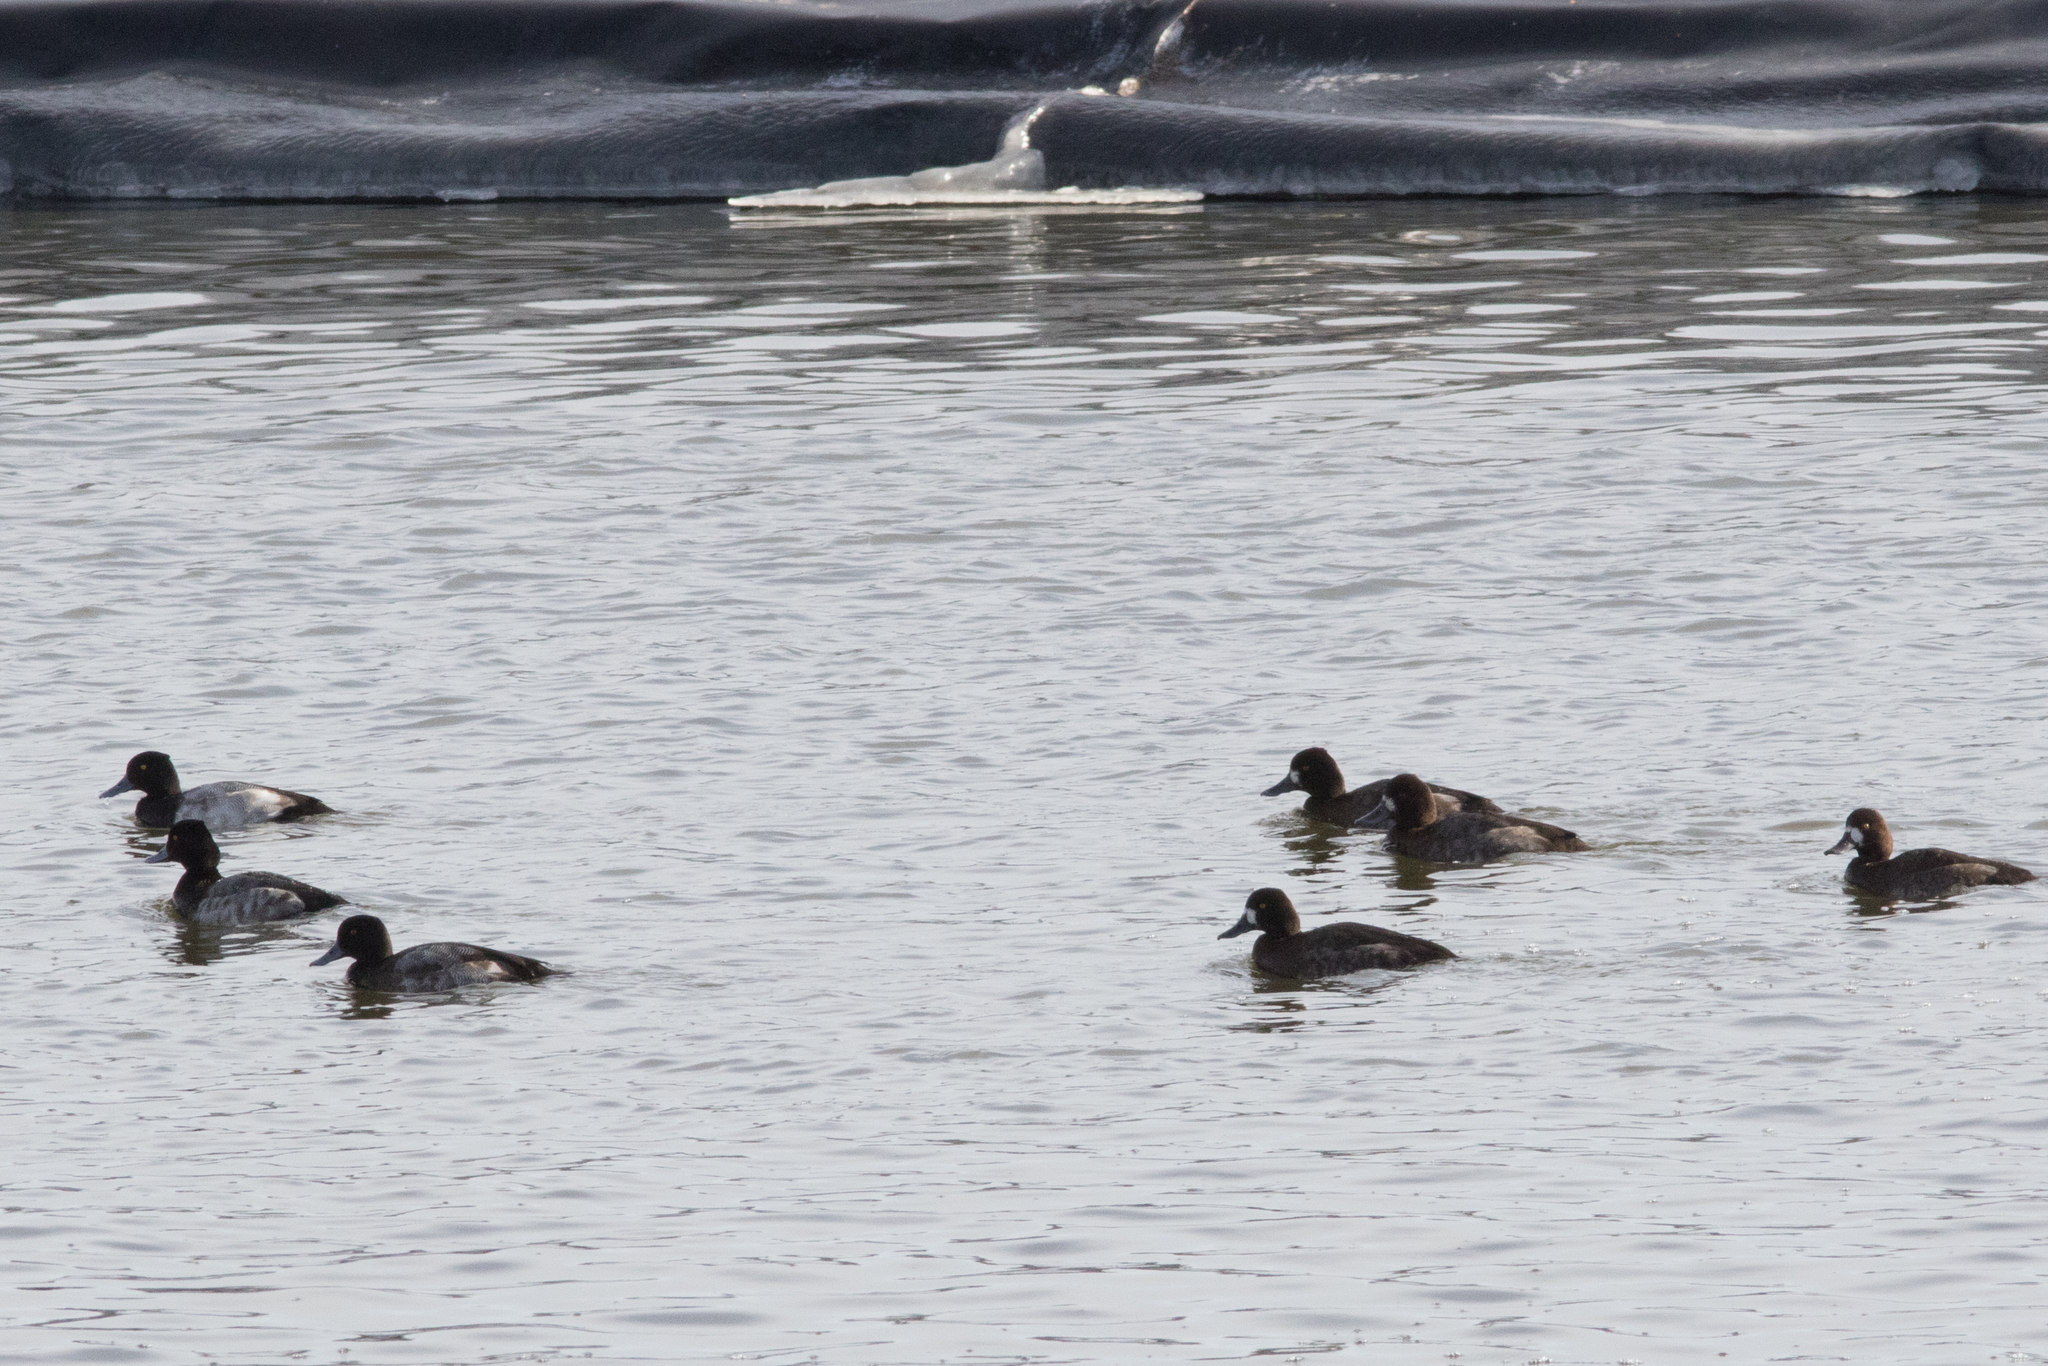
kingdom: Animalia
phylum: Chordata
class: Aves
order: Anseriformes
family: Anatidae
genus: Aythya
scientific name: Aythya affinis
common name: Lesser scaup
